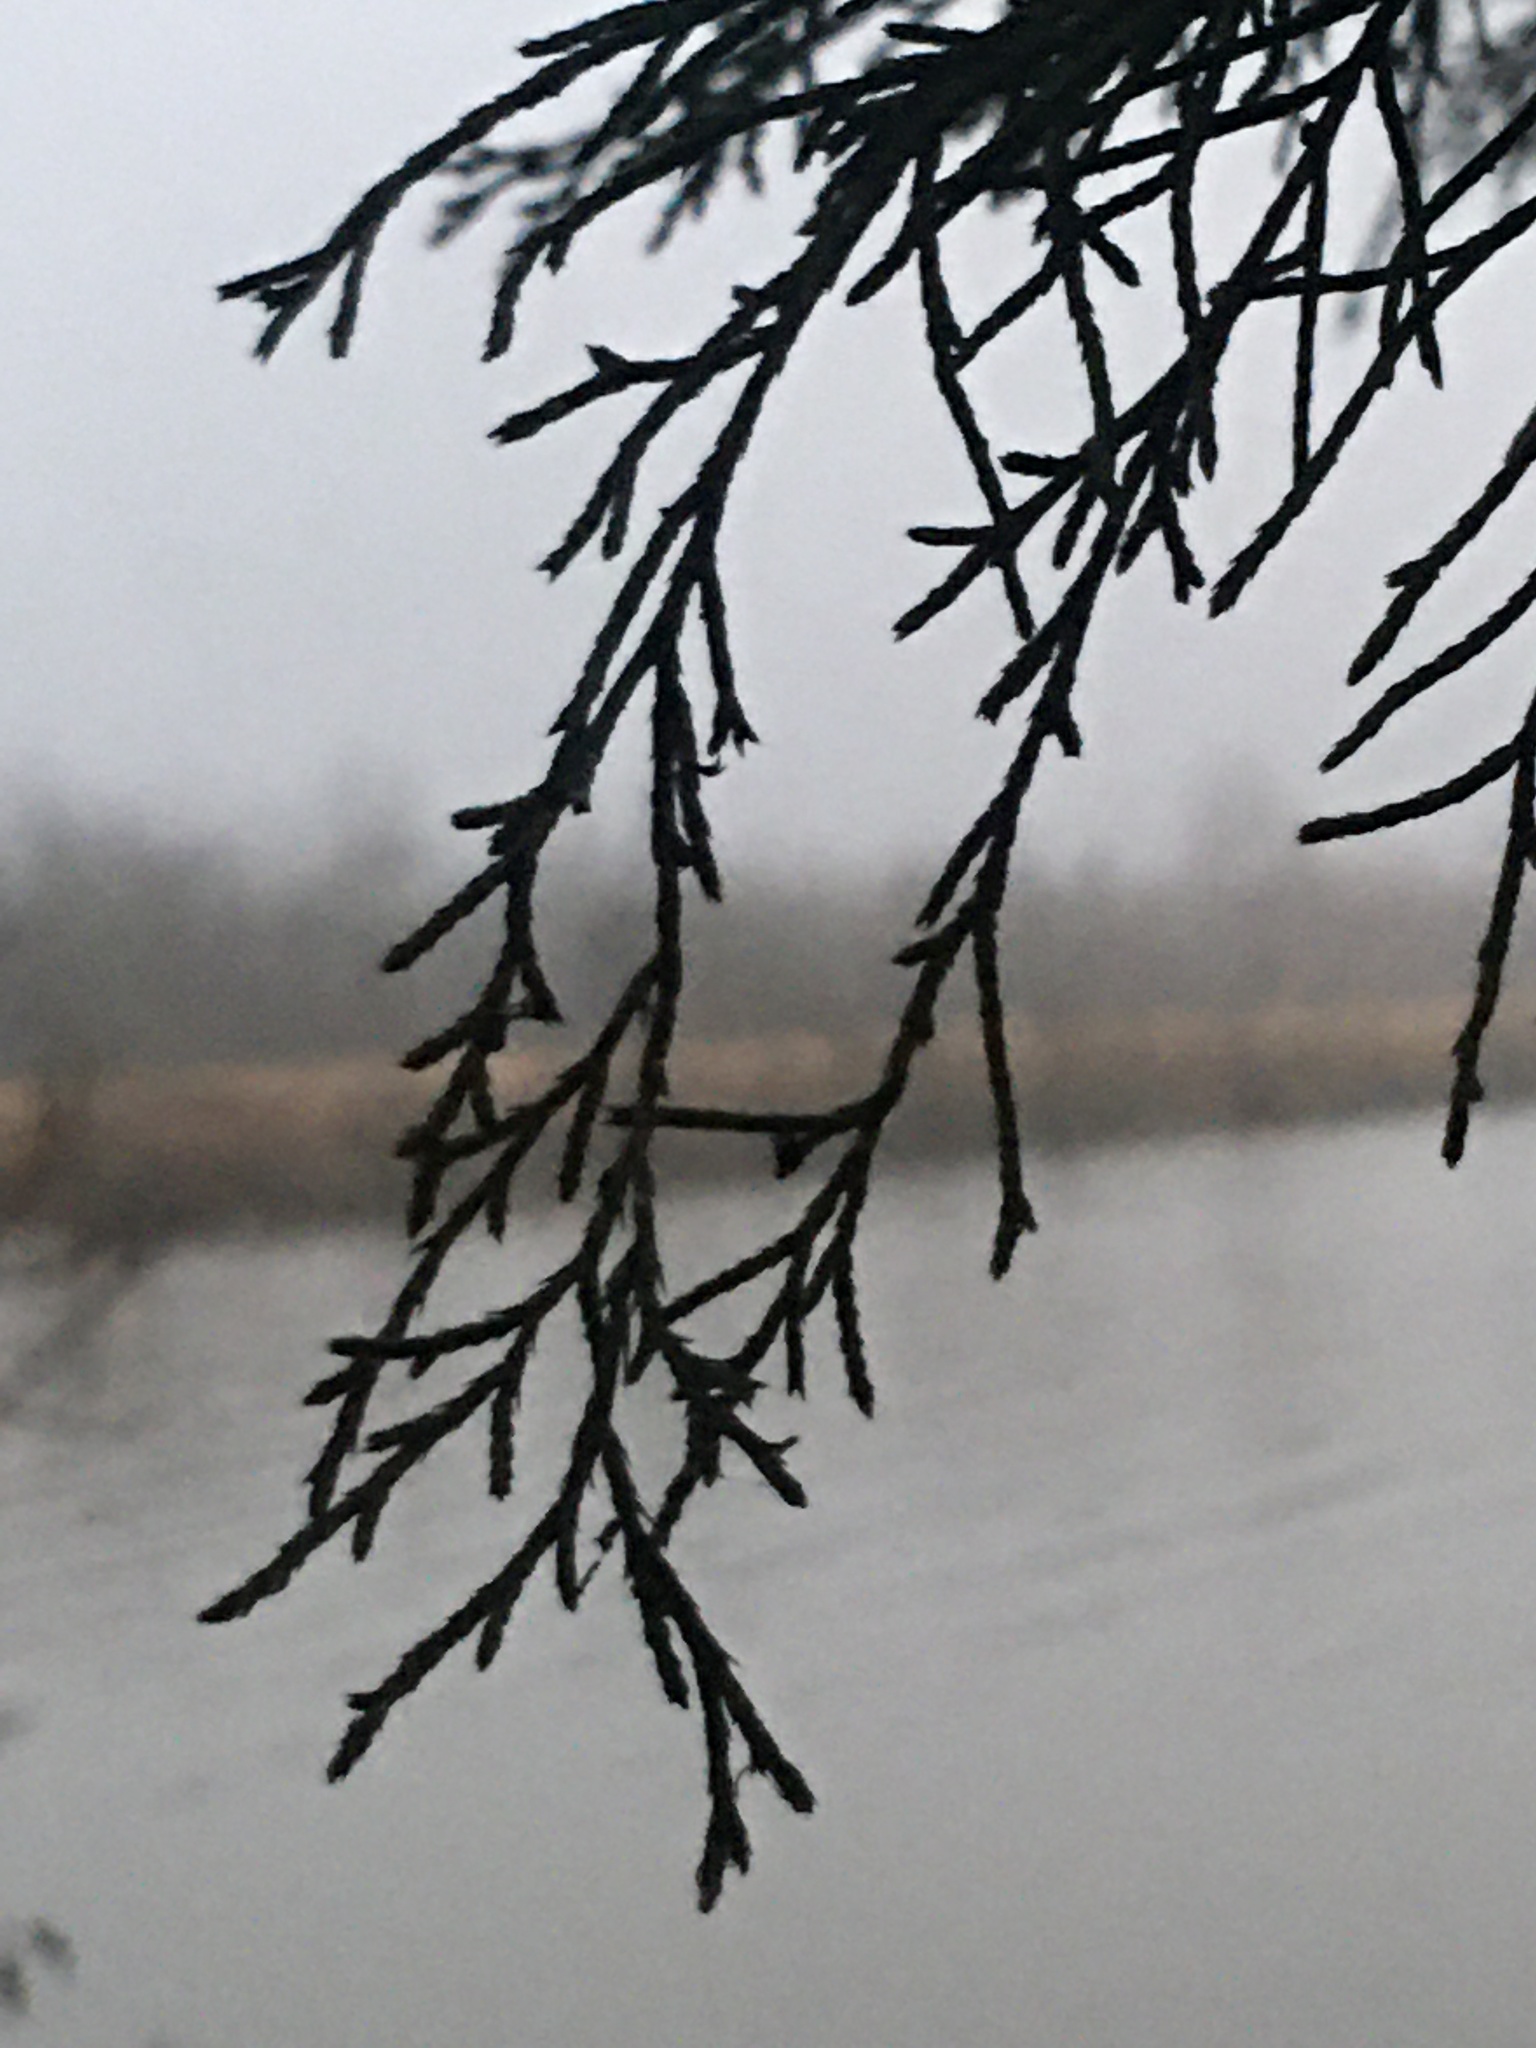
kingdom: Plantae
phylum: Tracheophyta
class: Pinopsida
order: Pinales
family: Cupressaceae
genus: Juniperus
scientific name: Juniperus virginiana
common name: Red juniper
